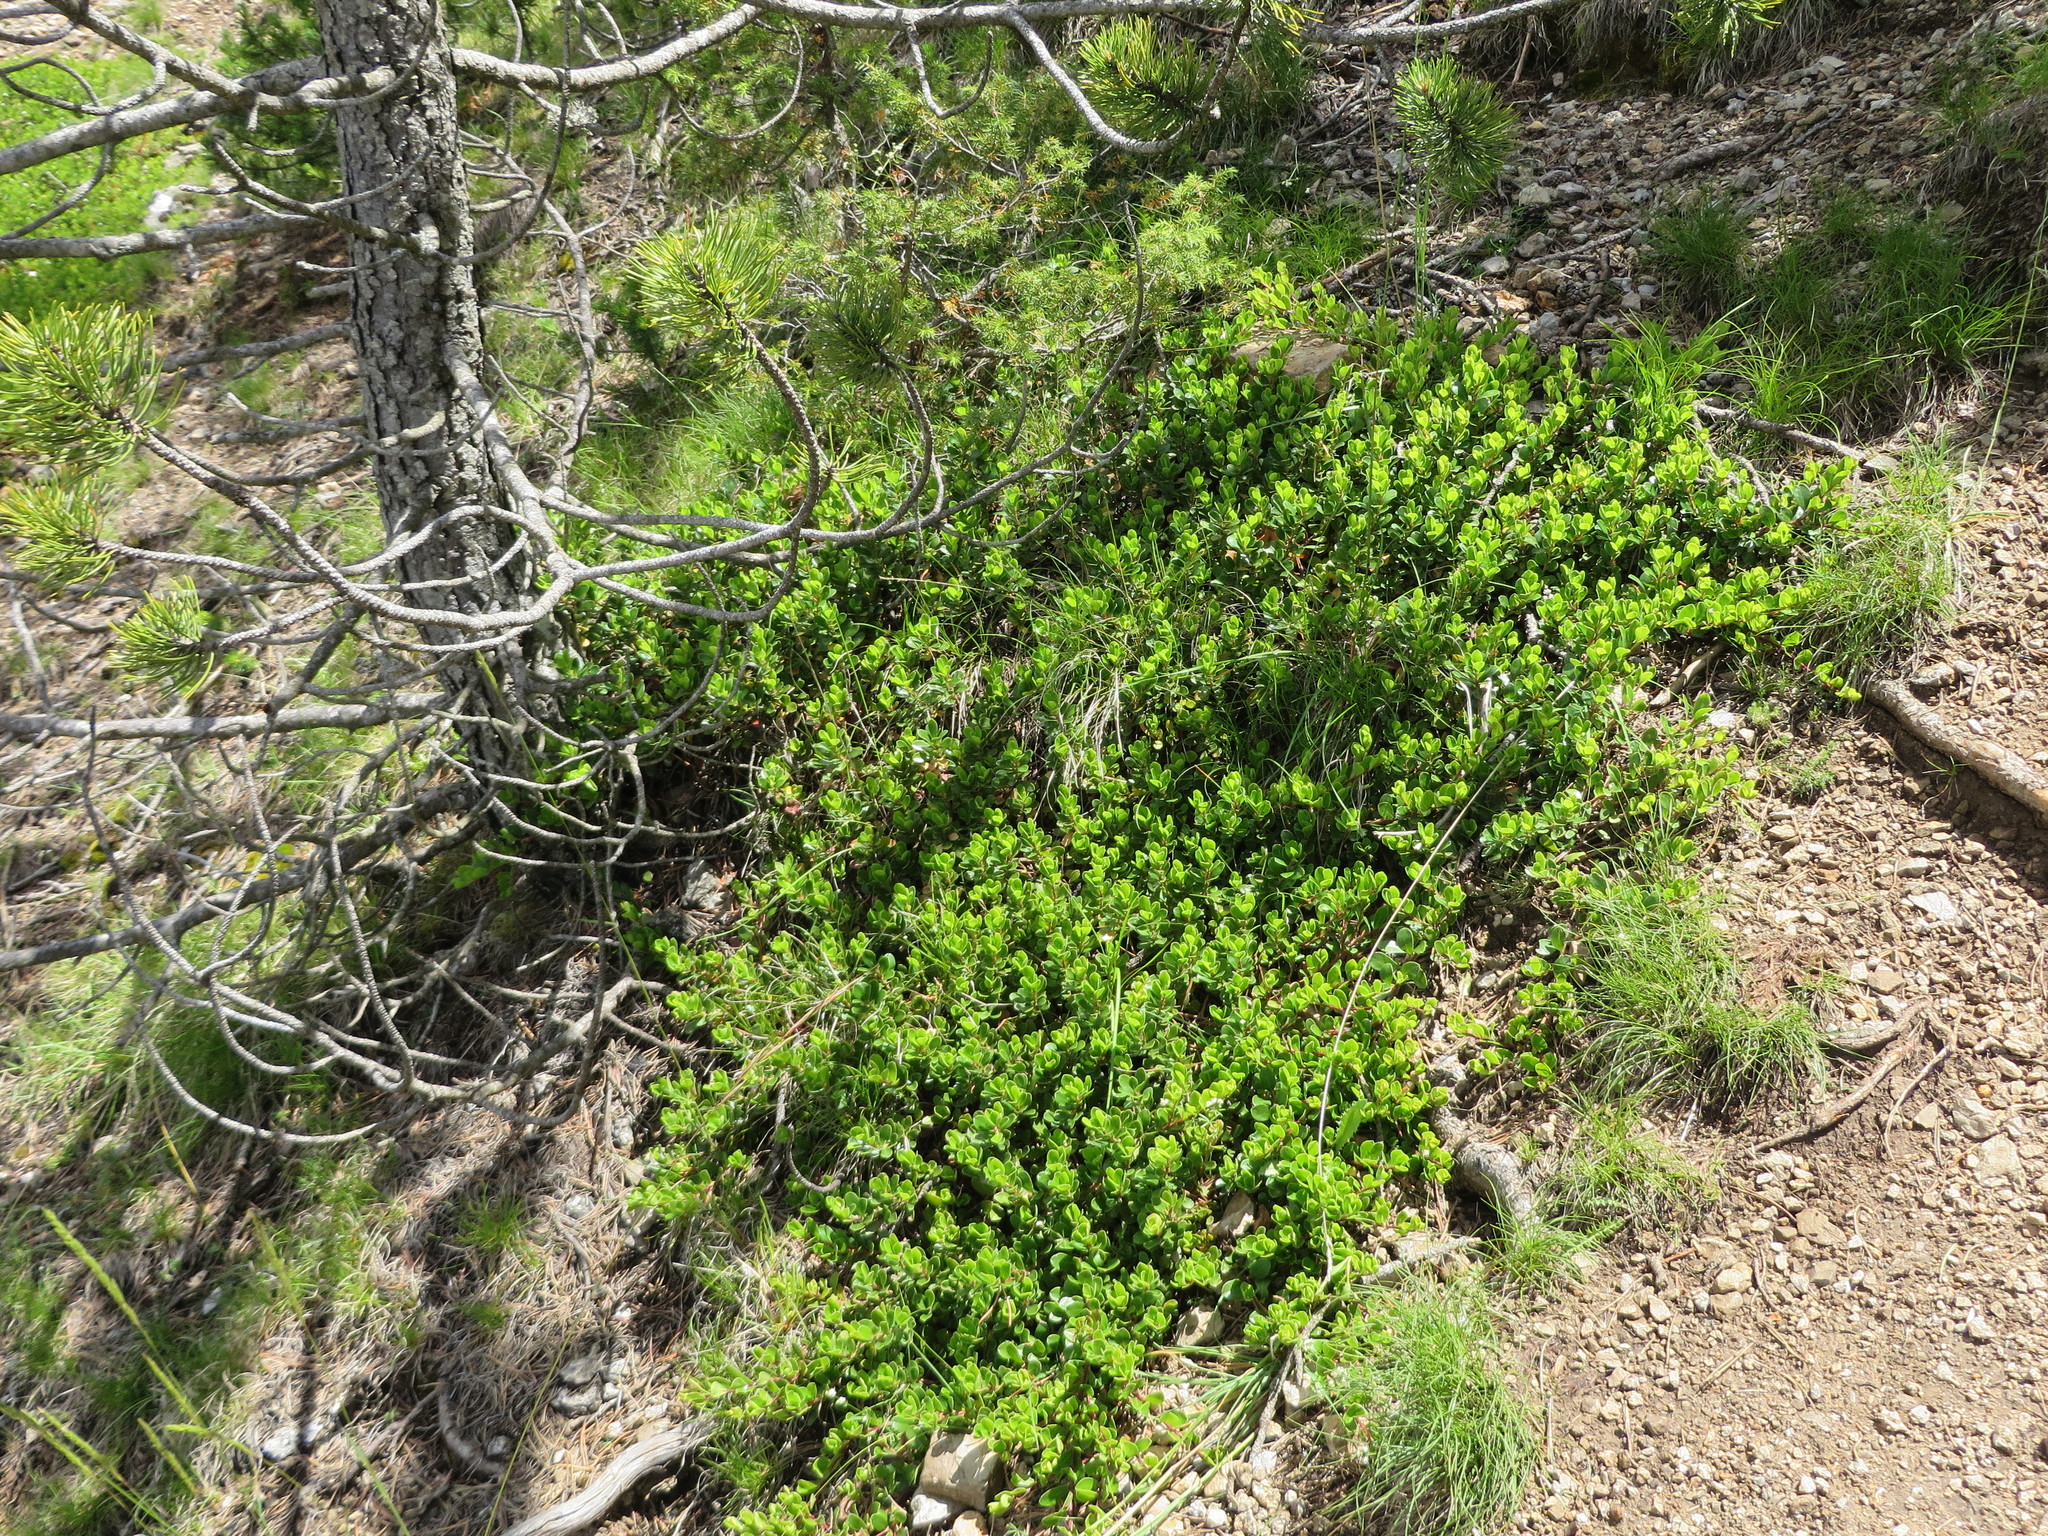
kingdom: Plantae
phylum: Tracheophyta
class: Magnoliopsida
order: Ericales
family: Ericaceae
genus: Arctostaphylos
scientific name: Arctostaphylos uva-ursi
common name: Bearberry
